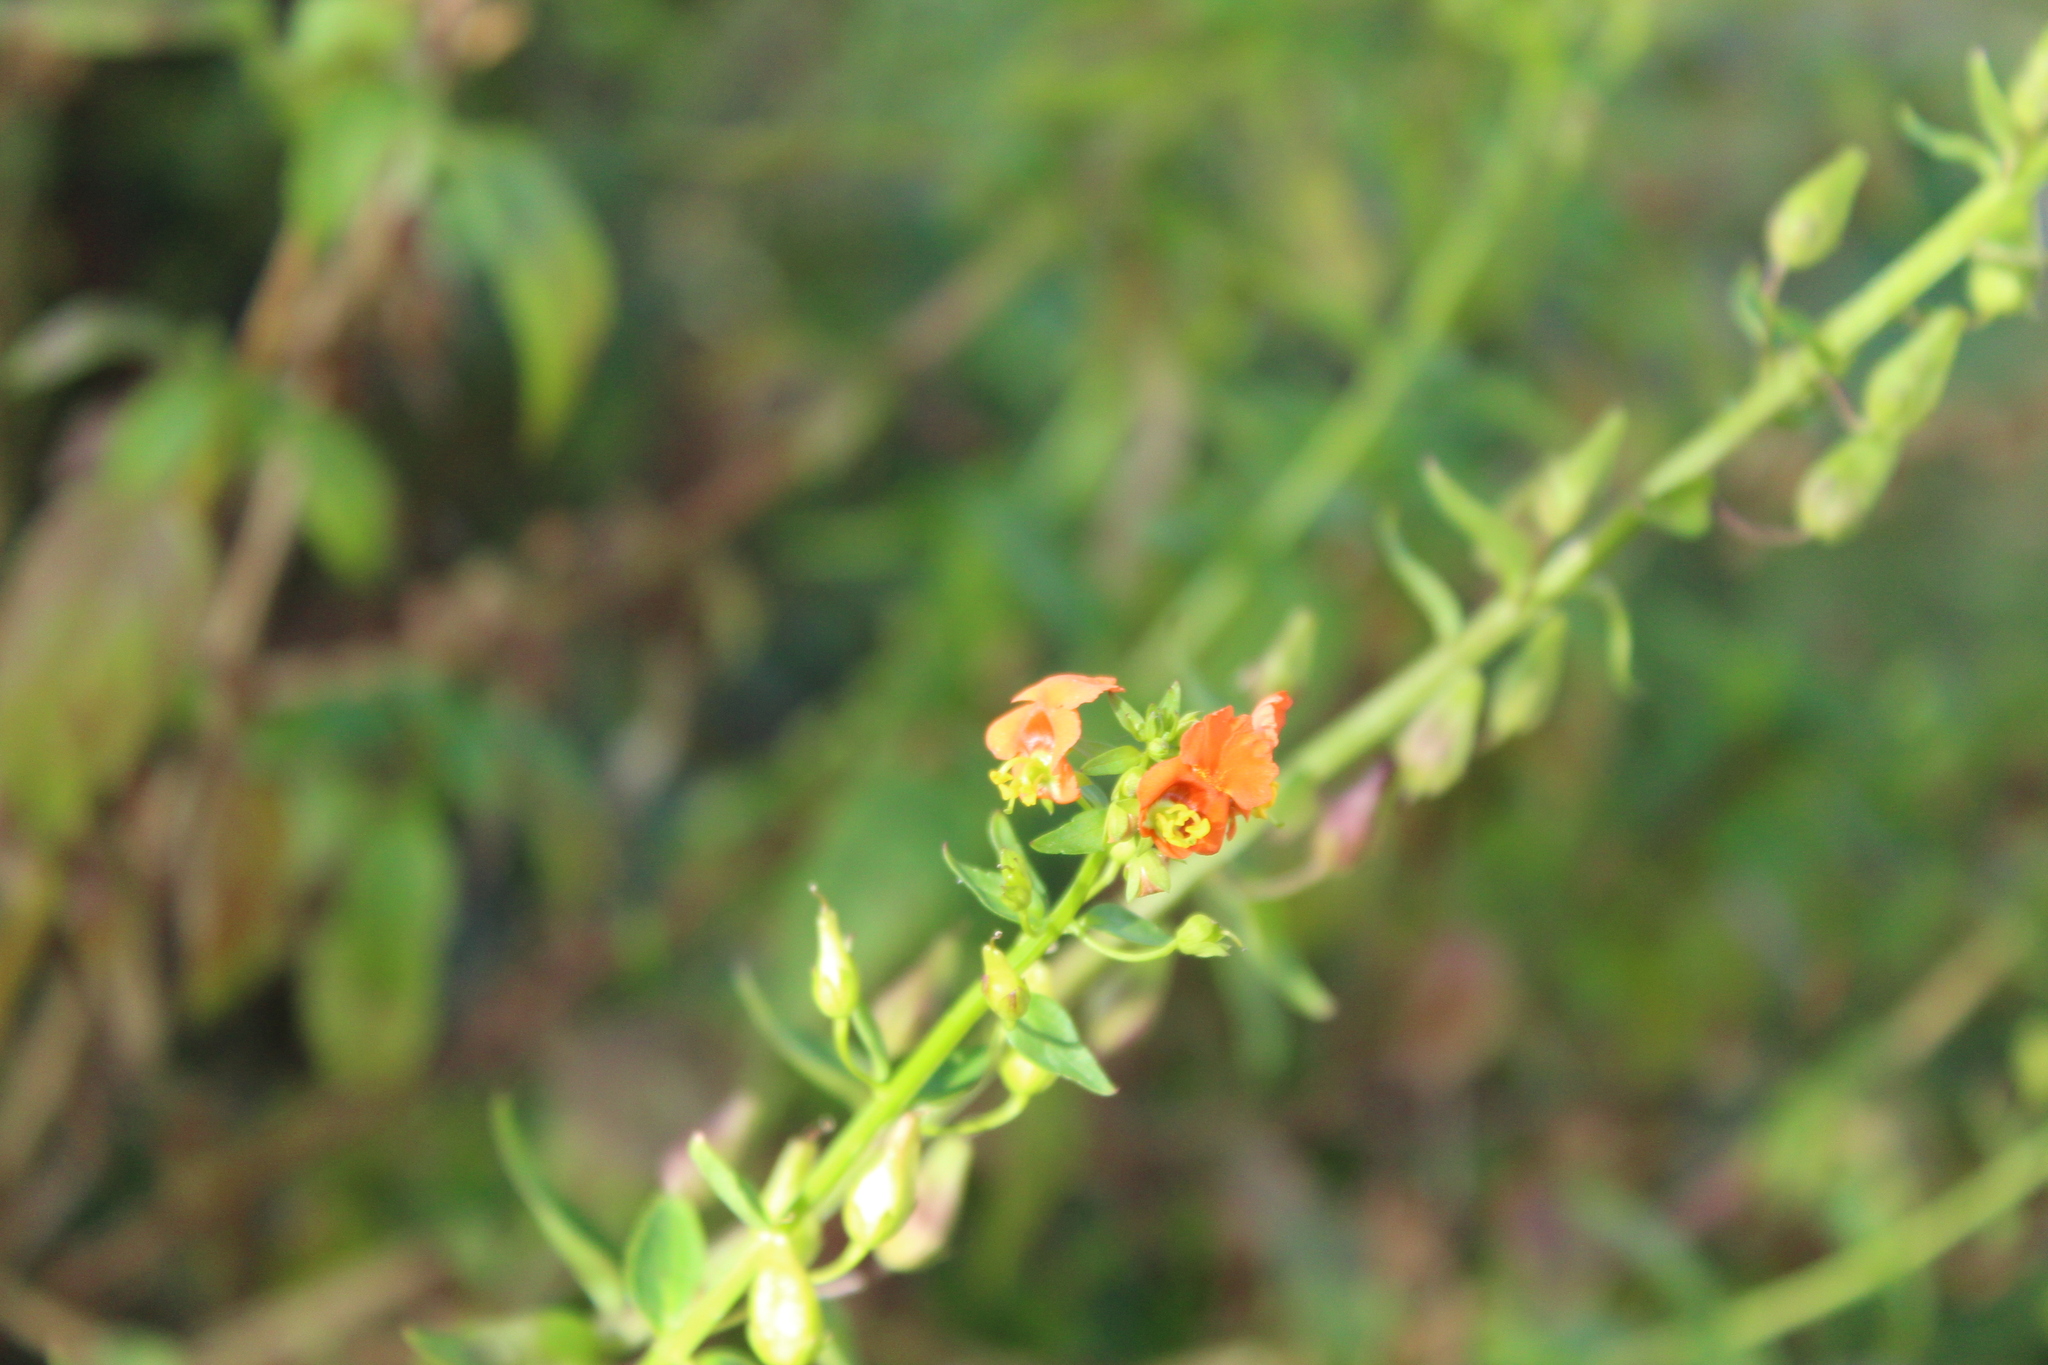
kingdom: Plantae
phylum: Tracheophyta
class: Magnoliopsida
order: Lamiales
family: Scrophulariaceae
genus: Alonsoa
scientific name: Alonsoa meridionalis
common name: Maskflower
